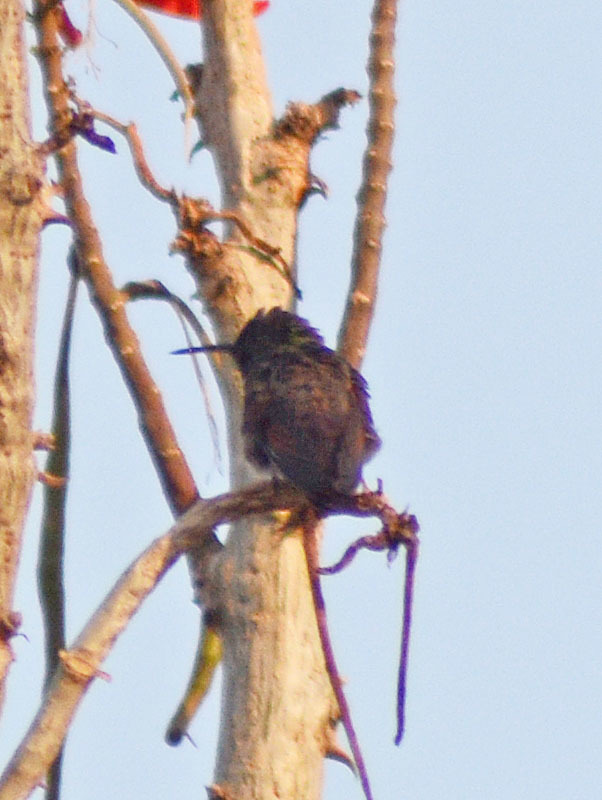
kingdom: Animalia
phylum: Chordata
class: Aves
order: Apodiformes
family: Trochilidae
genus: Saucerottia
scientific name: Saucerottia beryllina
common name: Berylline hummingbird
